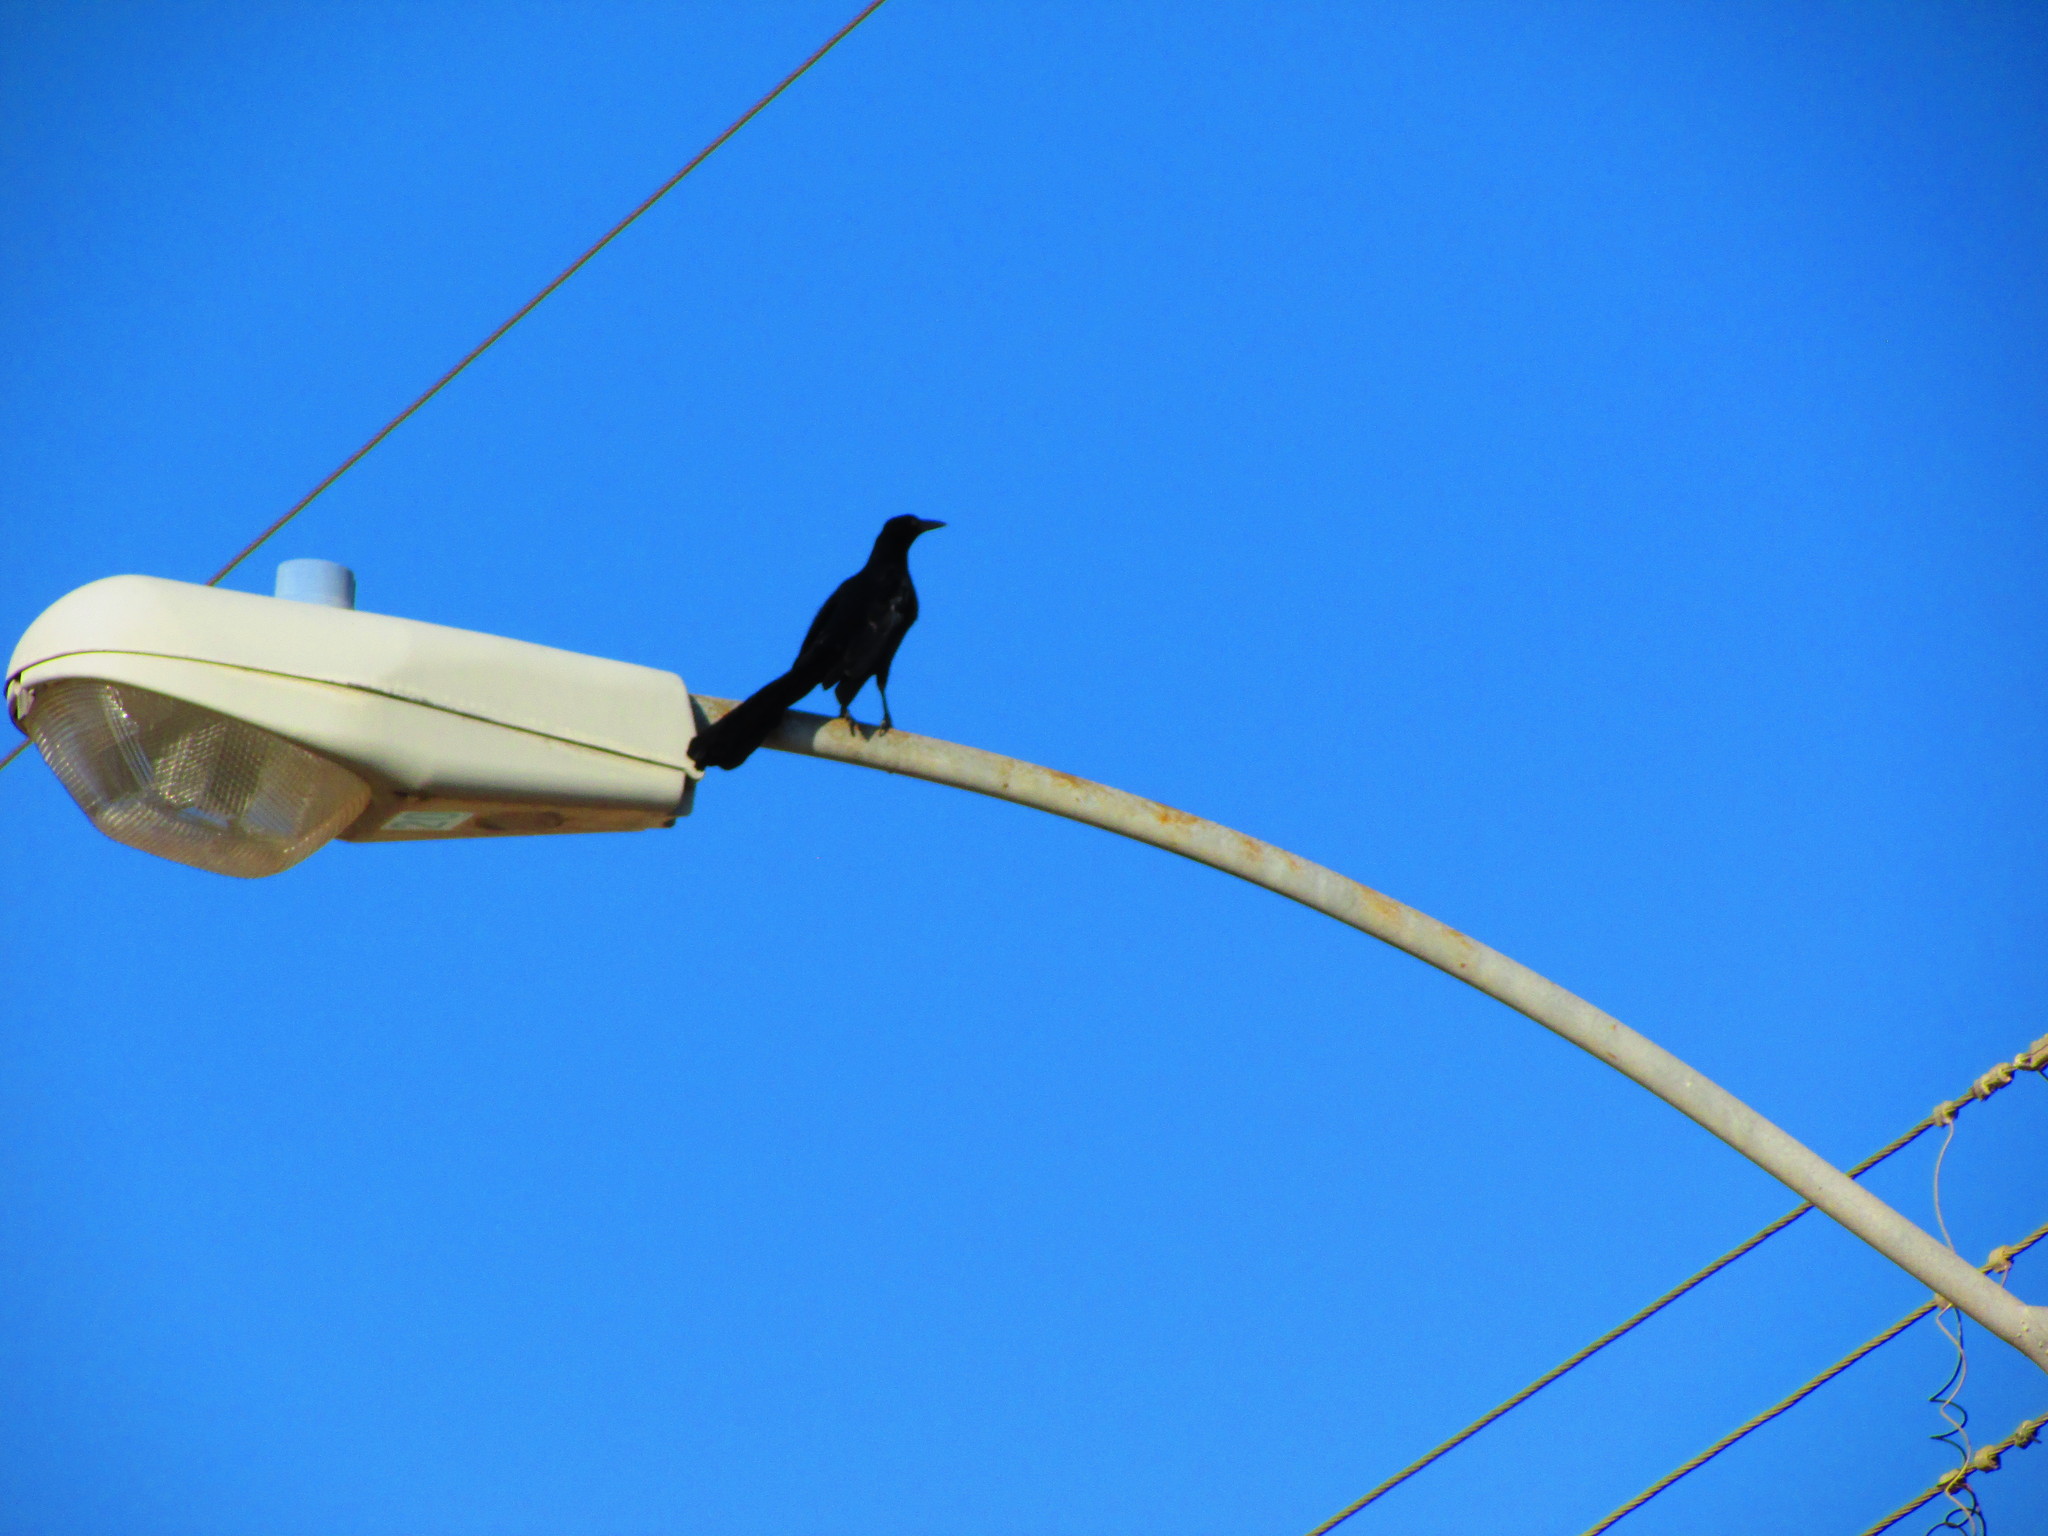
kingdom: Animalia
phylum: Chordata
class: Aves
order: Passeriformes
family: Icteridae
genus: Quiscalus
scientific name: Quiscalus mexicanus
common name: Great-tailed grackle
